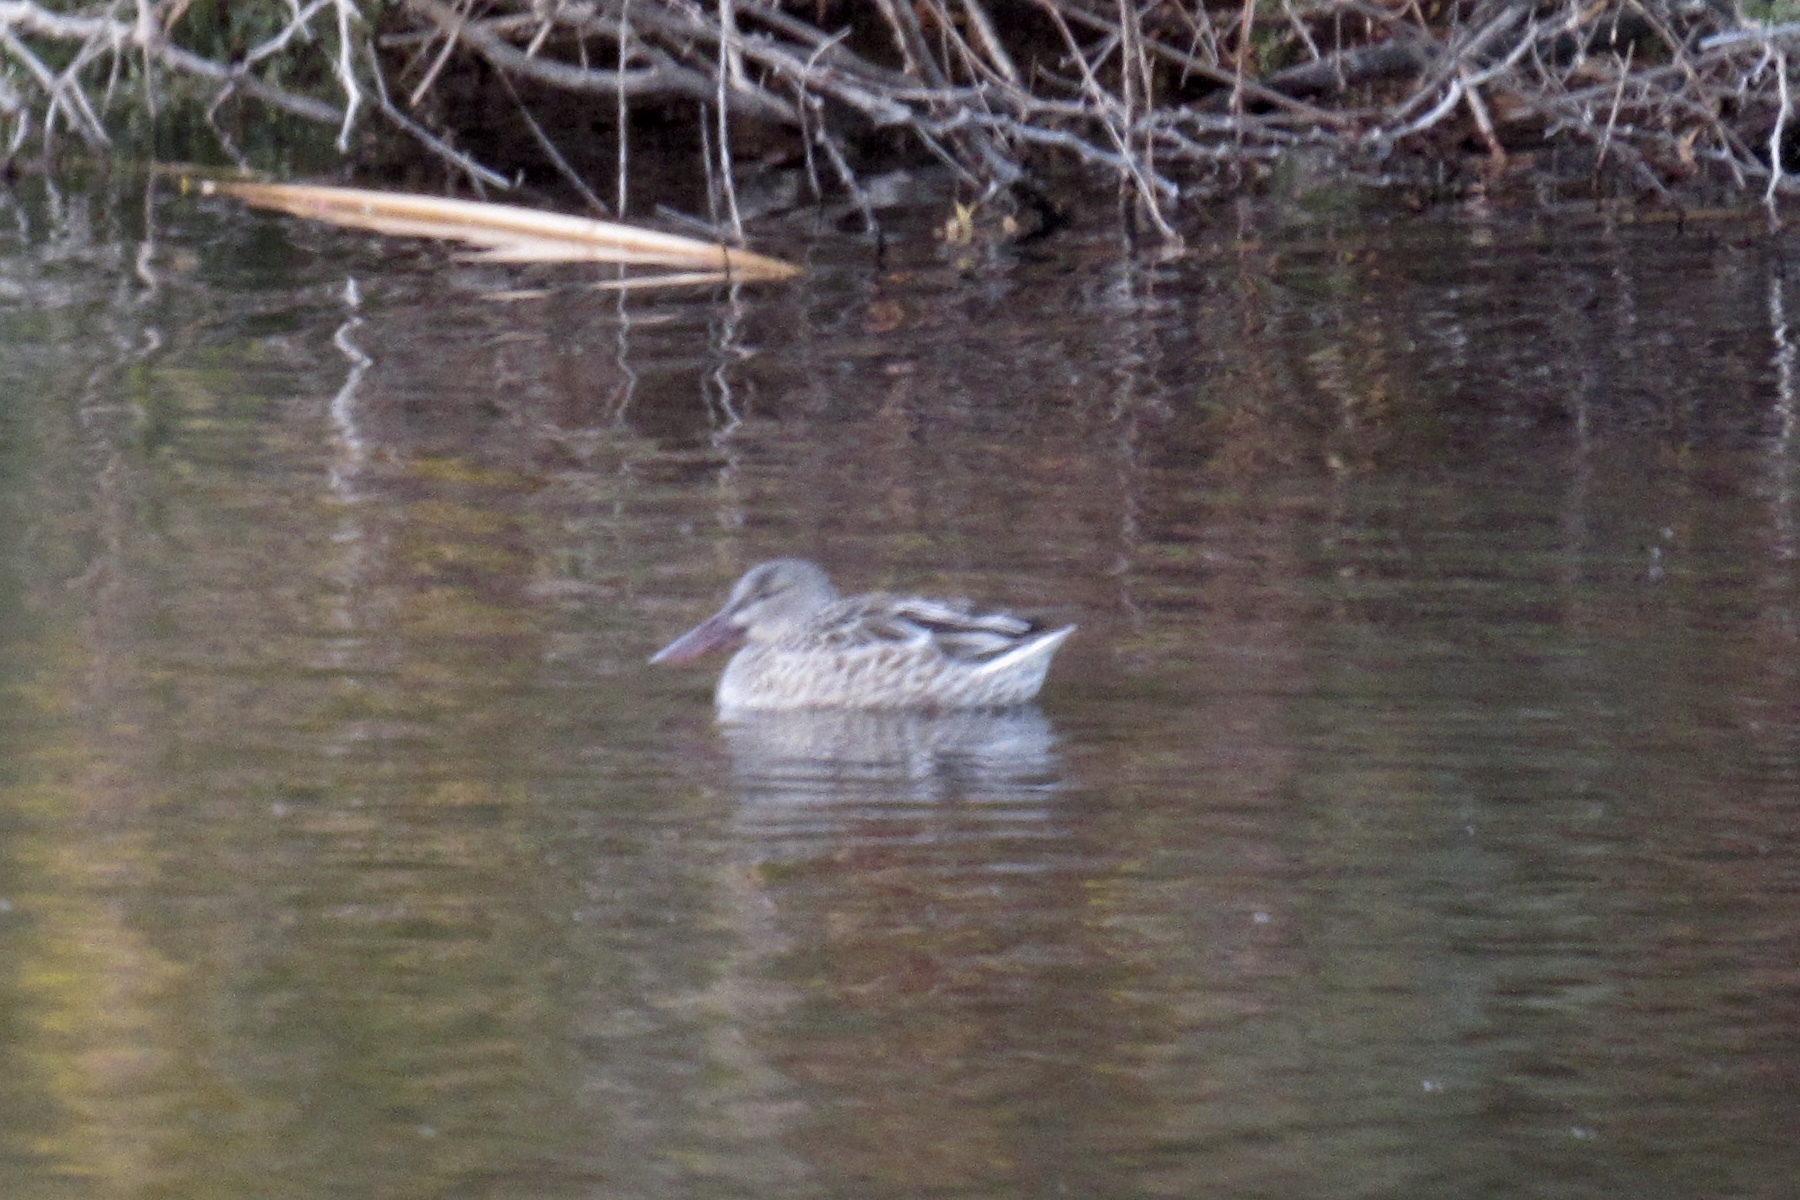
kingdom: Animalia
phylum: Chordata
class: Aves
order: Anseriformes
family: Anatidae
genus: Spatula
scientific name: Spatula clypeata
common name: Northern shoveler
